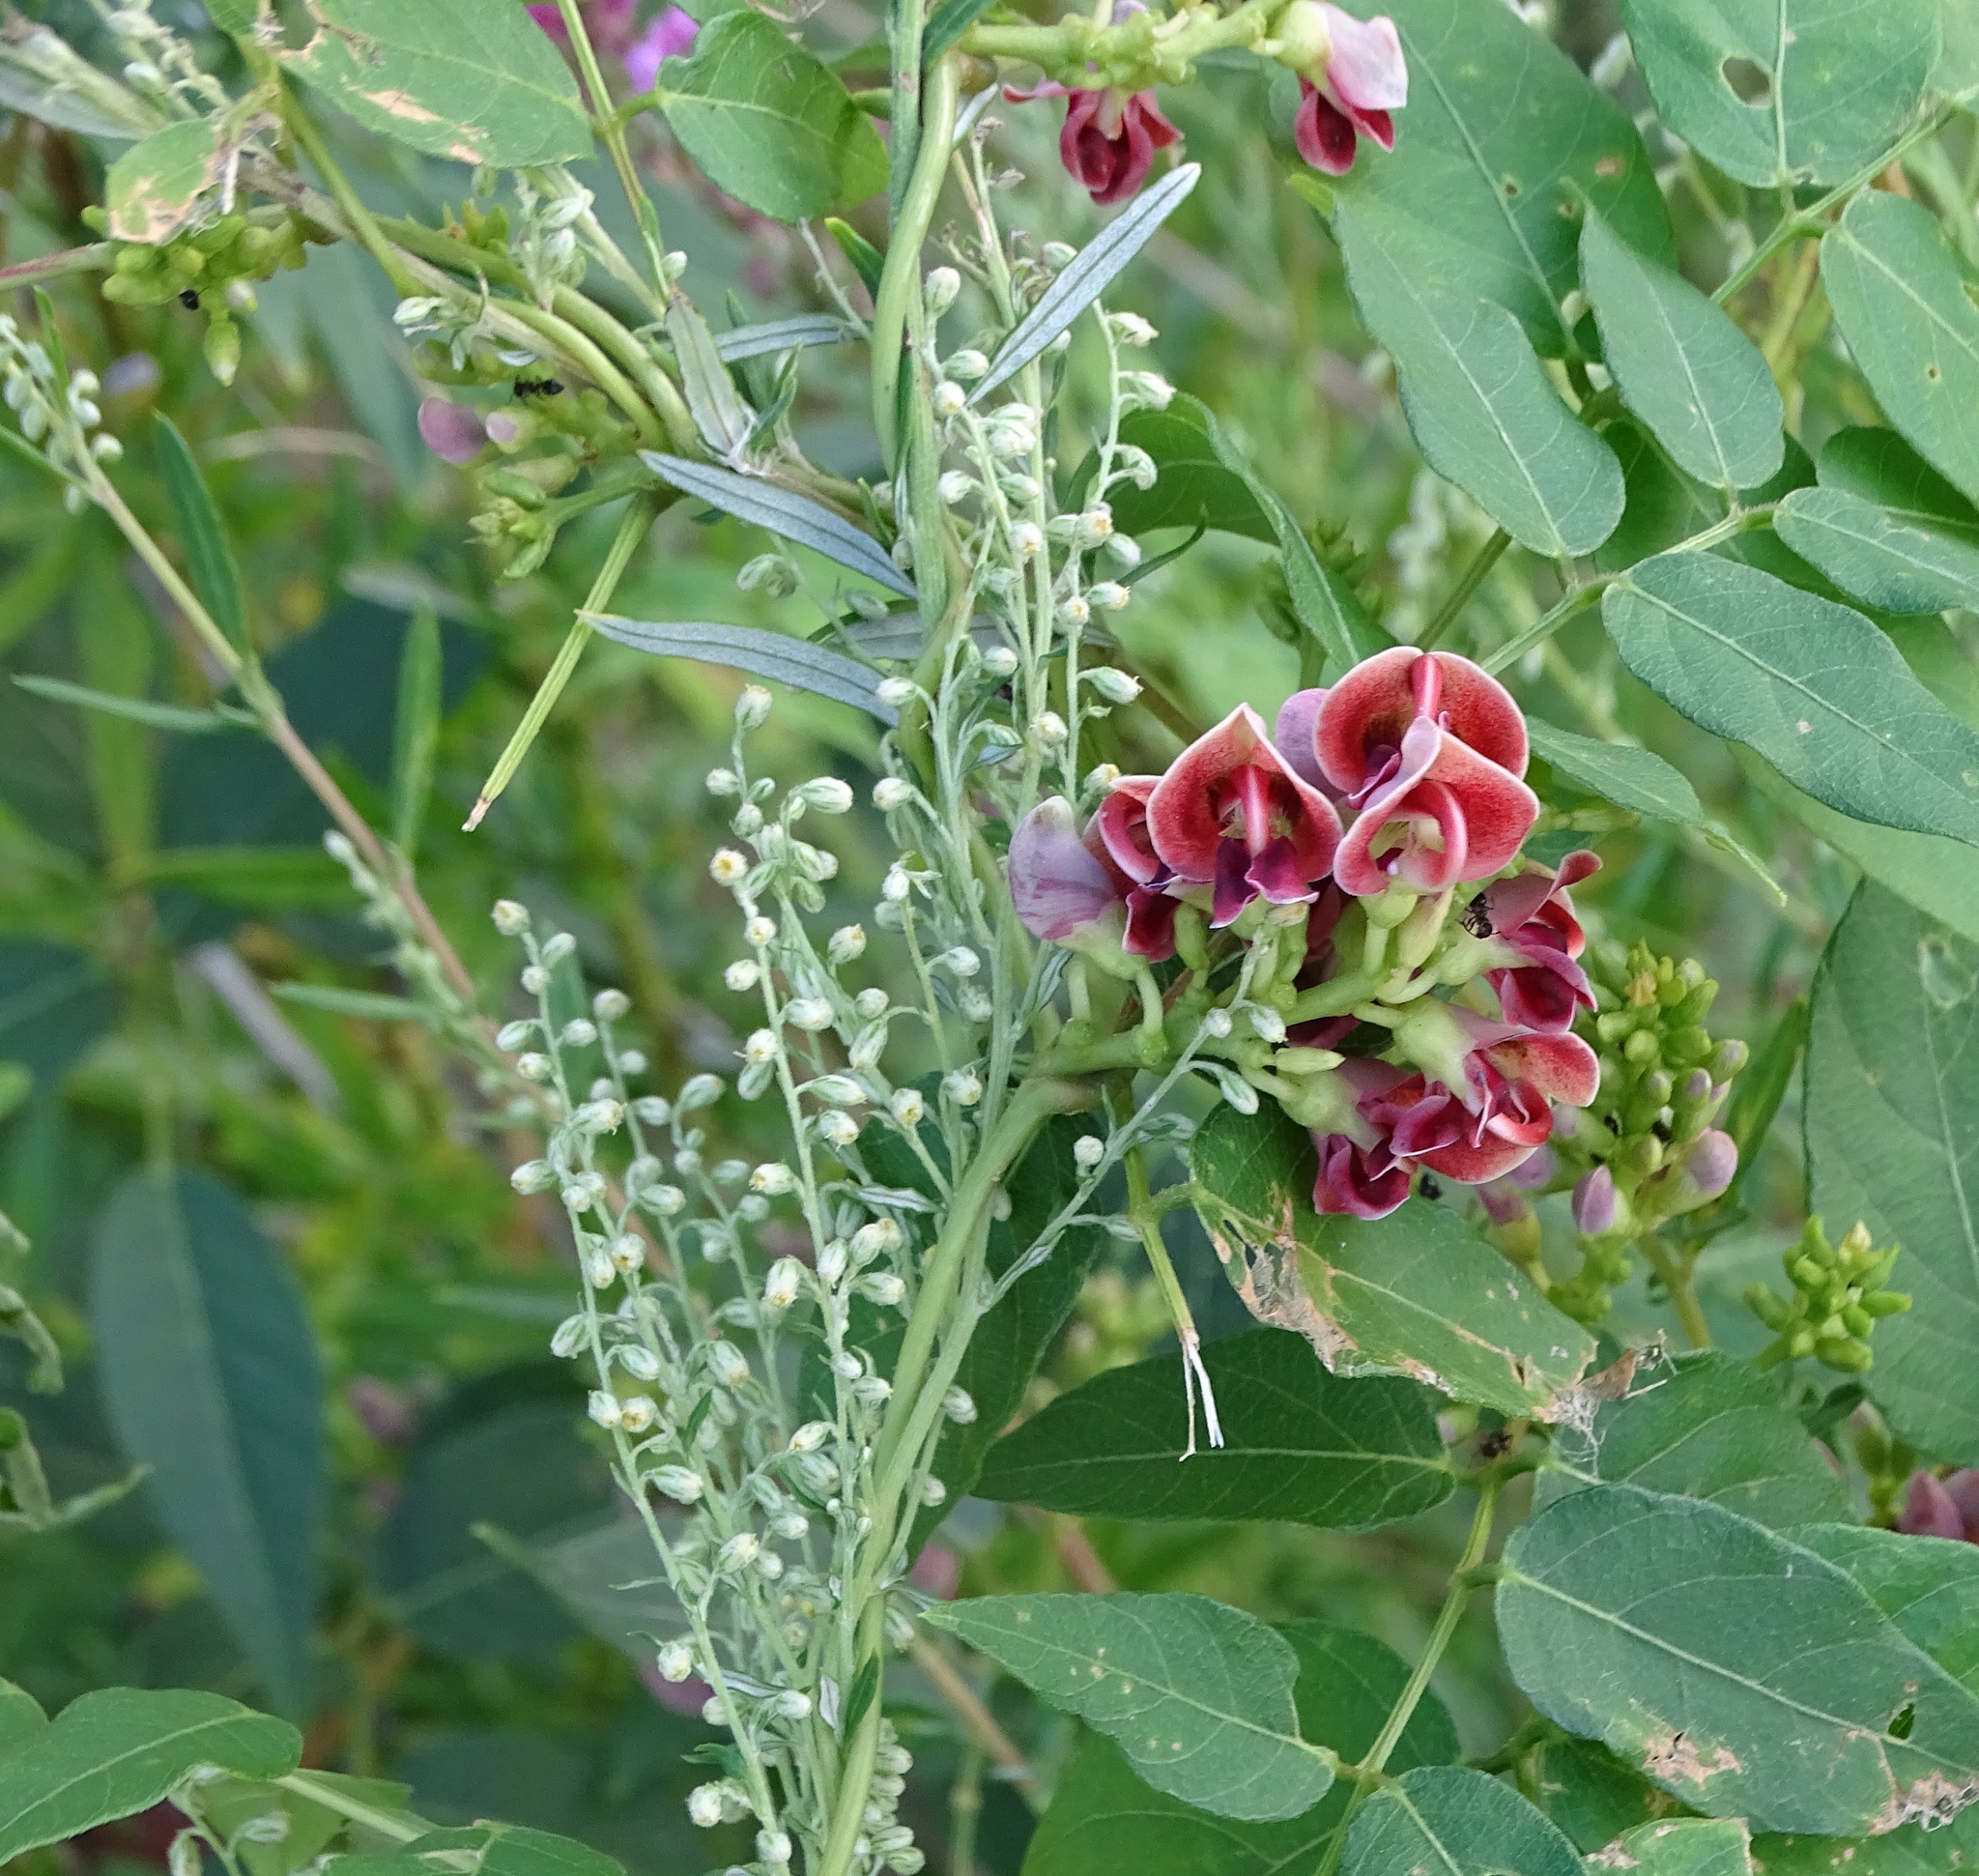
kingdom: Plantae
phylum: Tracheophyta
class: Magnoliopsida
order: Fabales
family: Fabaceae
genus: Apios
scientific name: Apios americana
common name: American potato-bean
